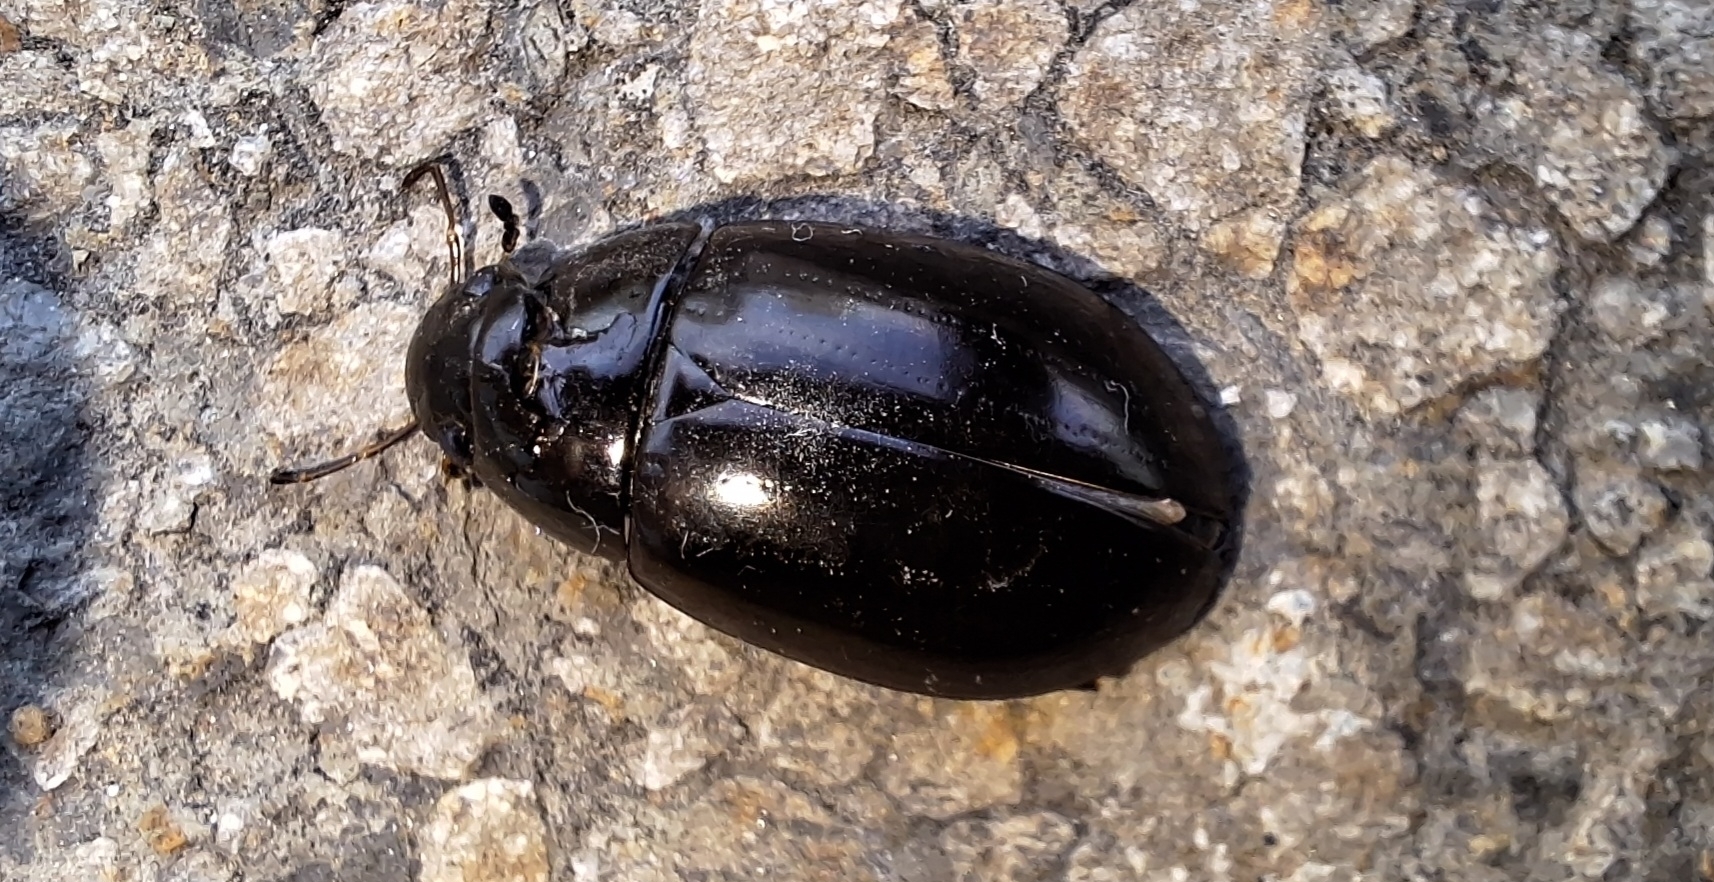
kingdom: Animalia
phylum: Arthropoda
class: Insecta
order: Coleoptera
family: Hydrophilidae
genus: Hydrochara
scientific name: Hydrochara caraboides
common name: Lesser silver water beetle
